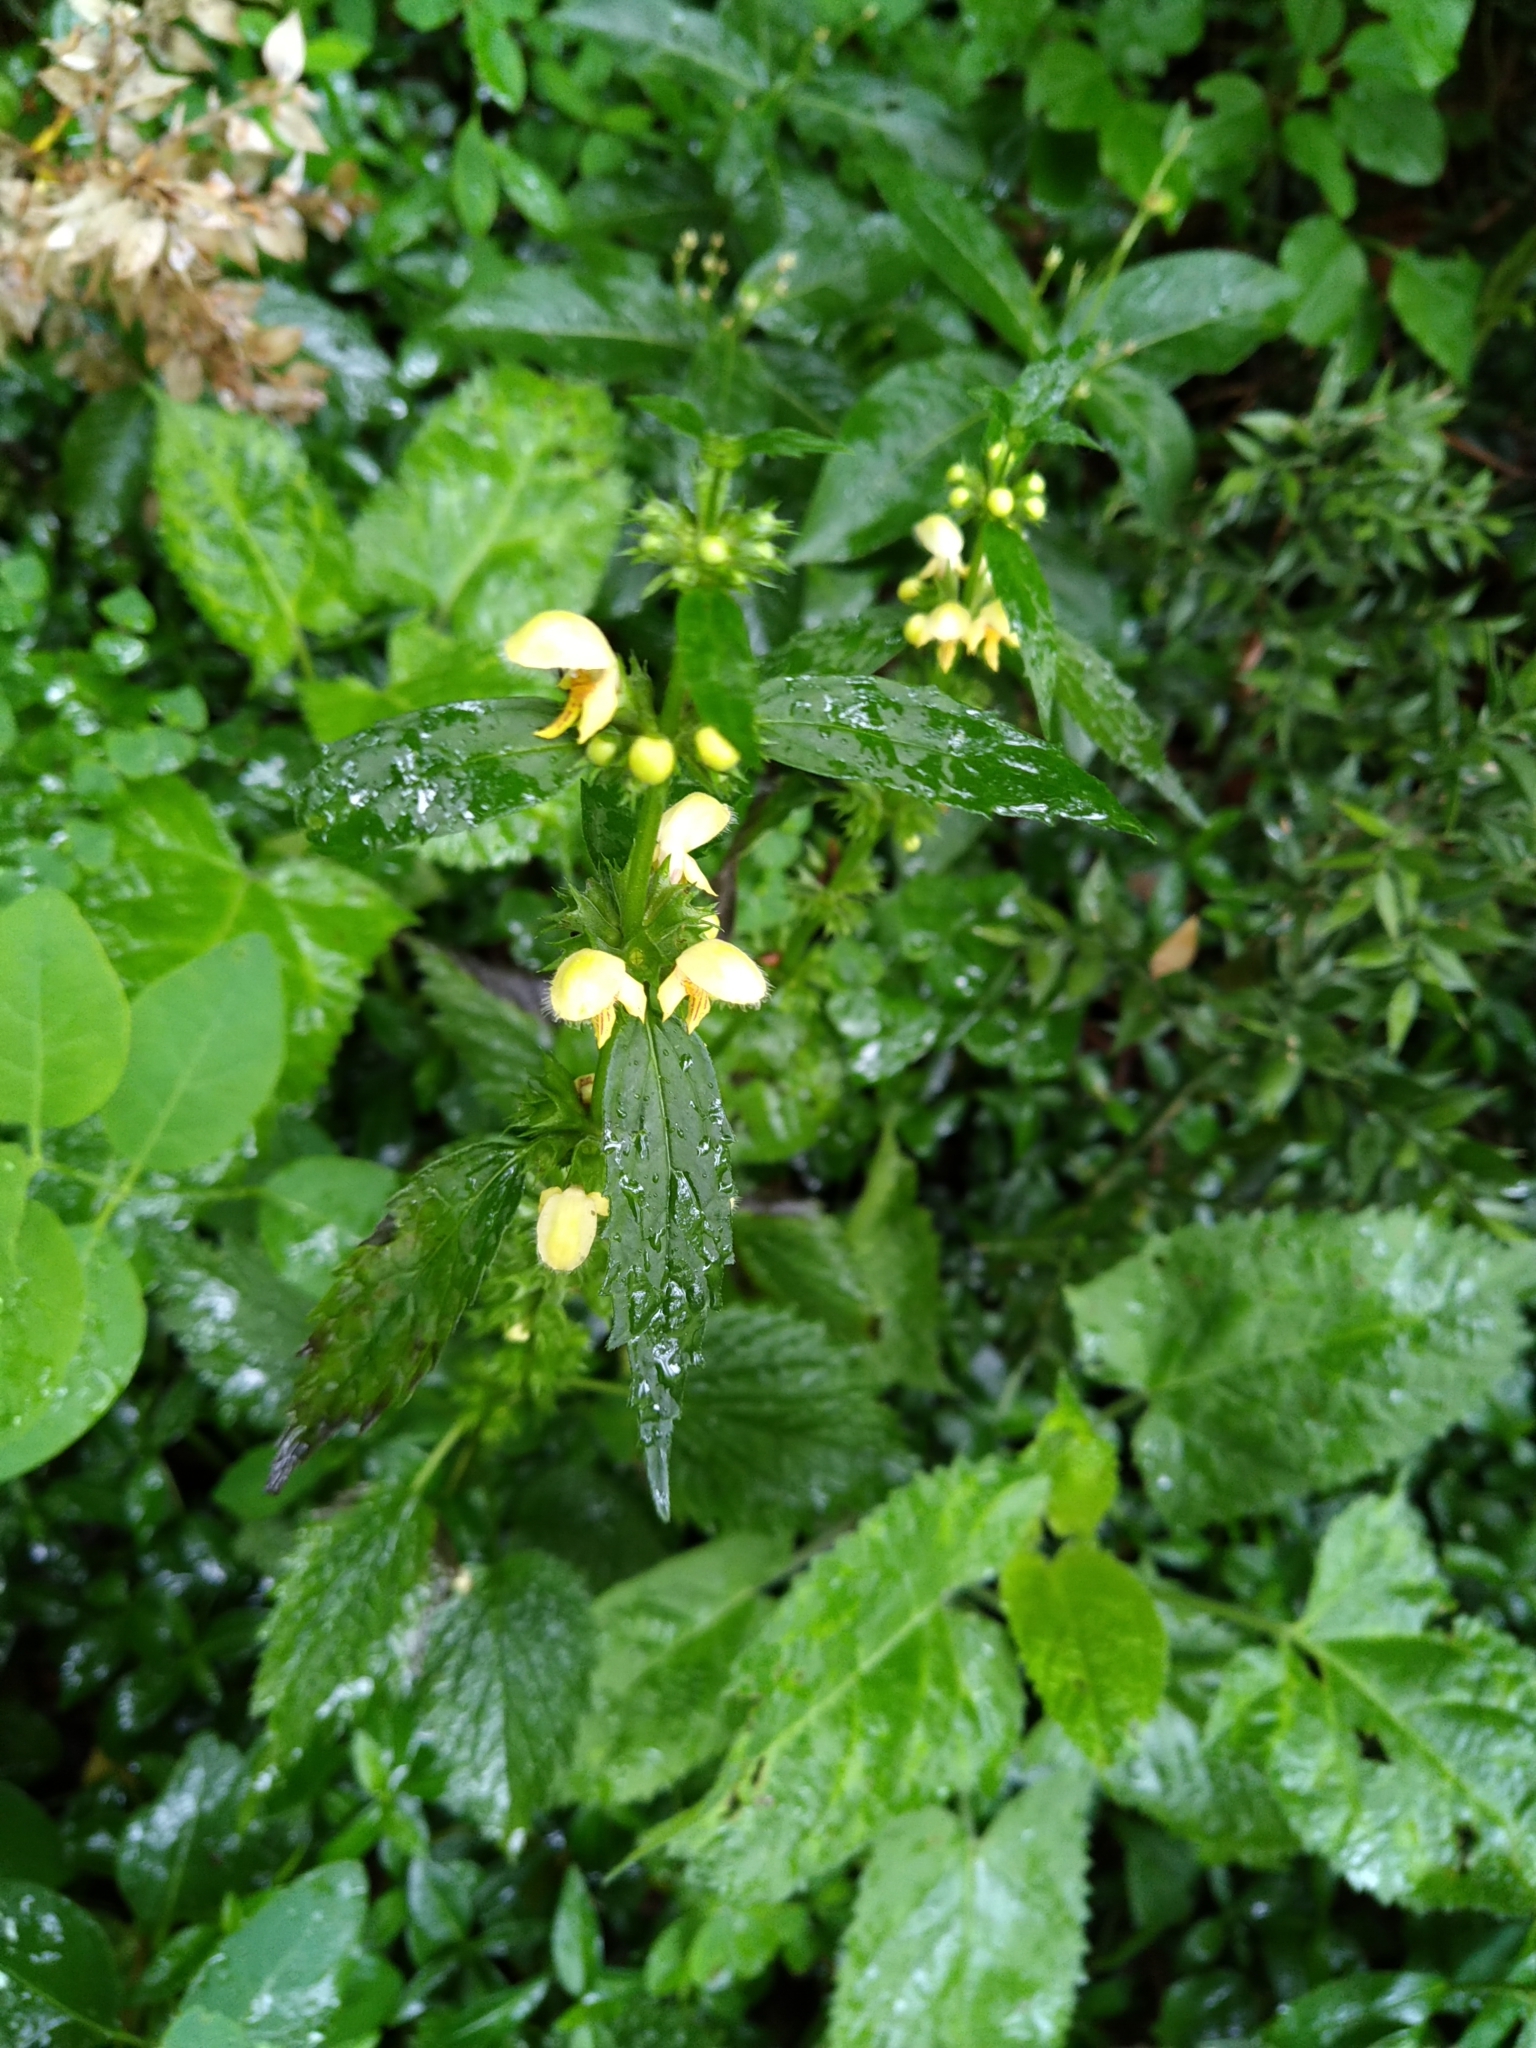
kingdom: Plantae
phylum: Tracheophyta
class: Magnoliopsida
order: Lamiales
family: Lamiaceae
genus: Lamium
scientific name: Lamium galeobdolon
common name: Yellow archangel
